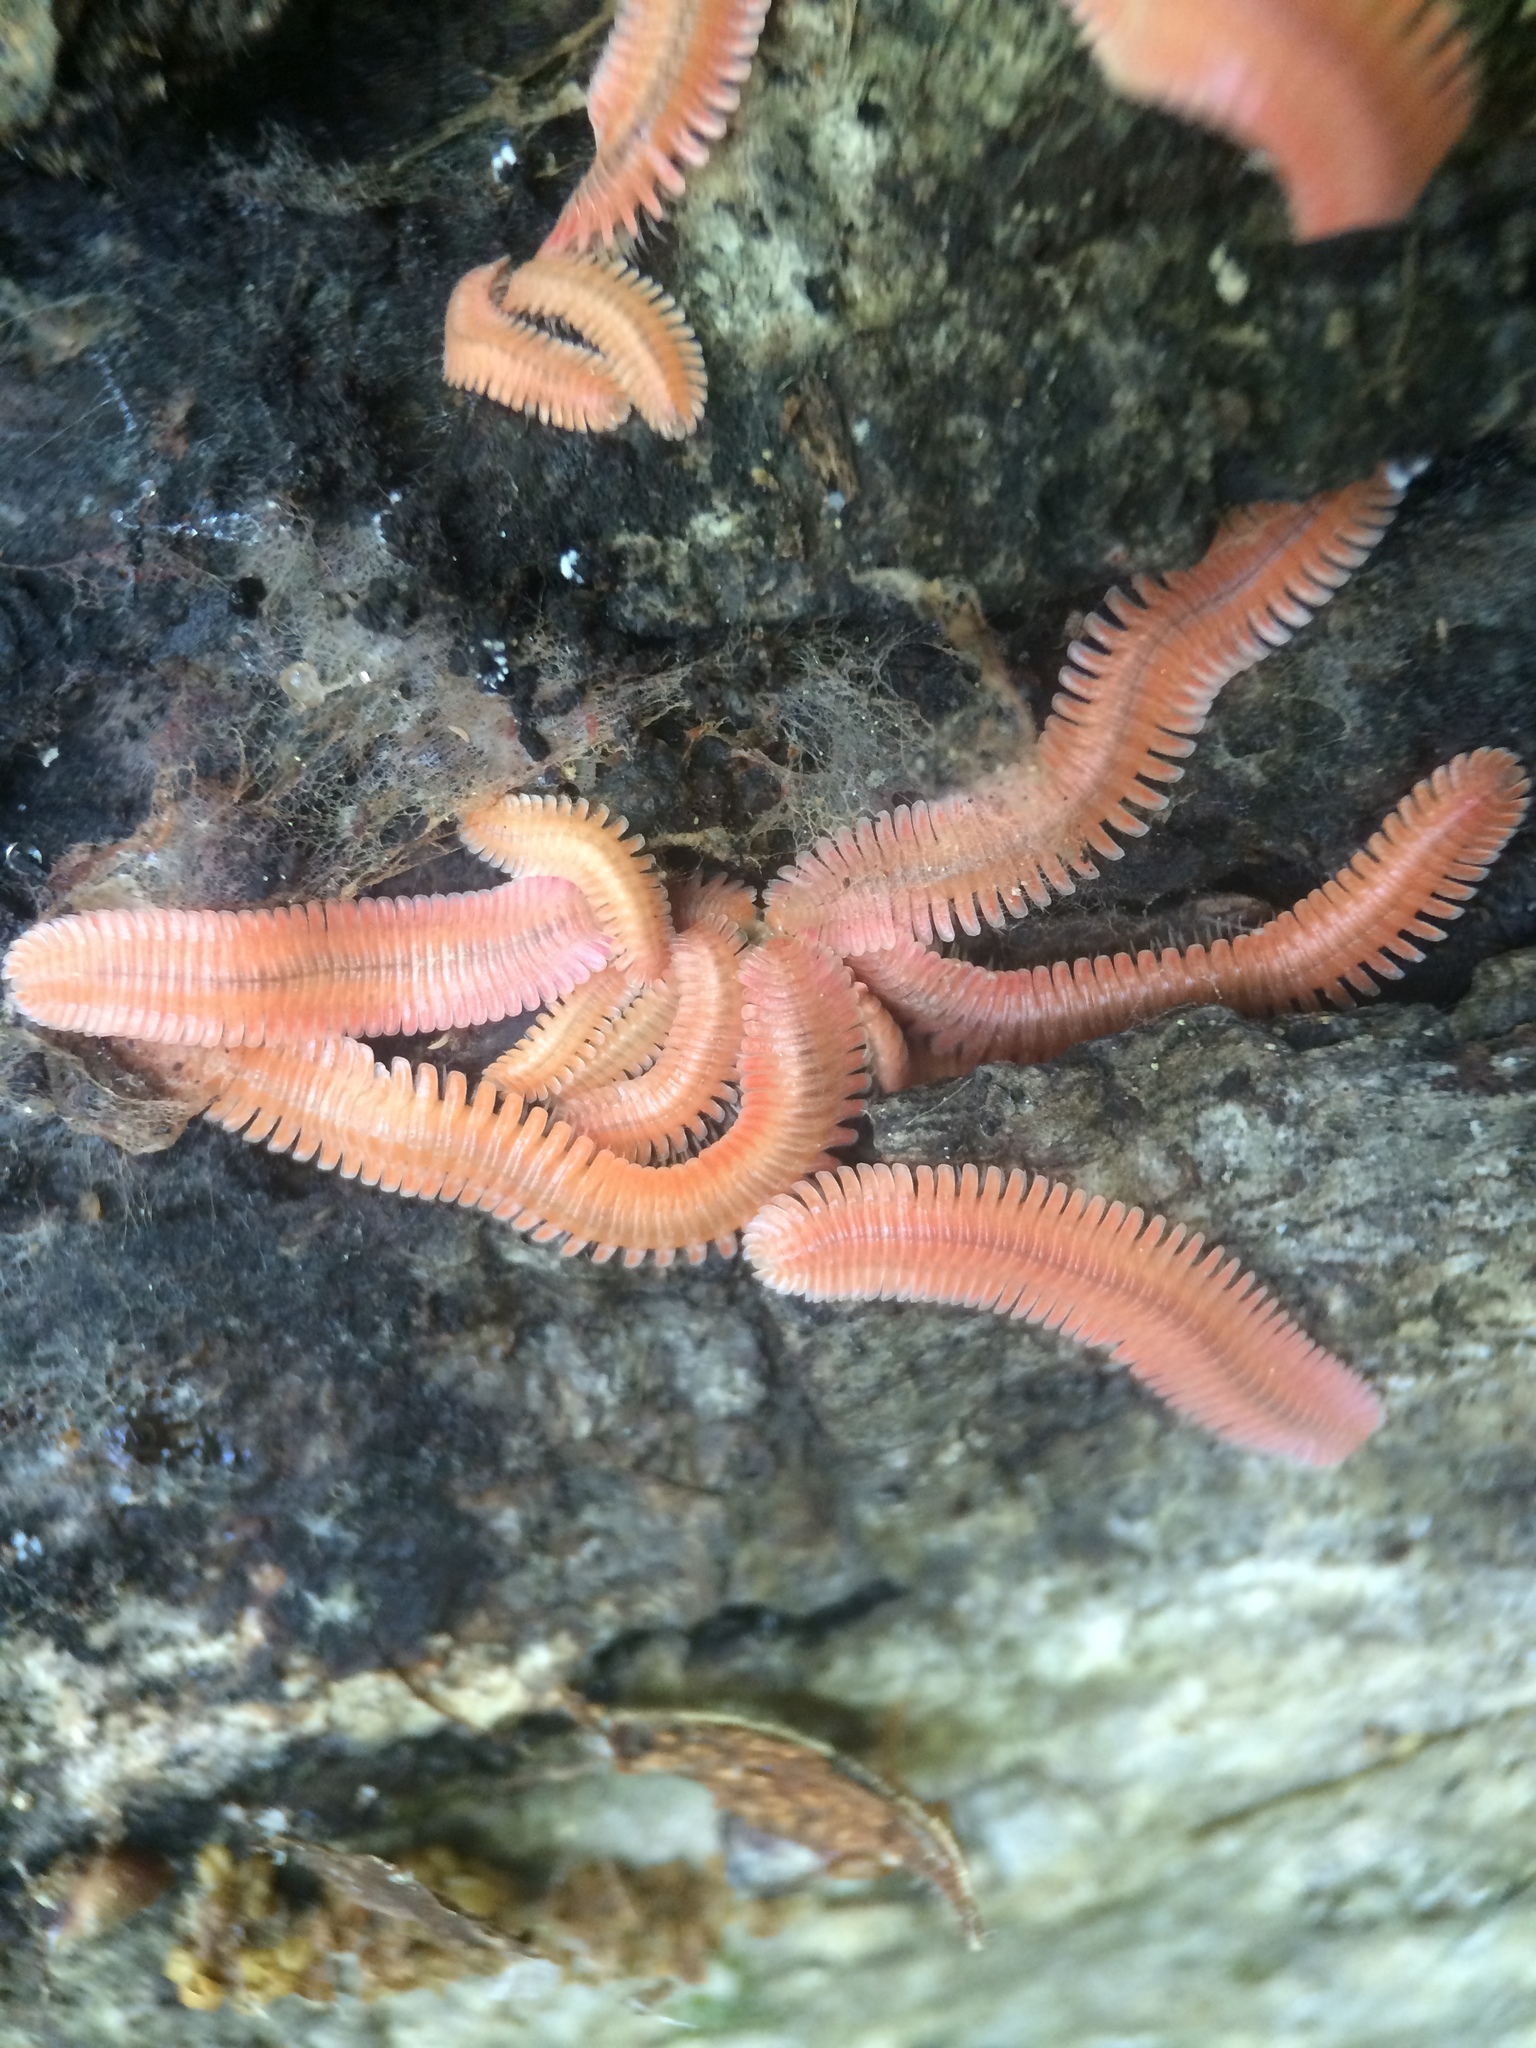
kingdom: Animalia
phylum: Arthropoda
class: Diplopoda
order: Platydesmida
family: Andrognathidae
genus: Brachycybe
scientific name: Brachycybe lecontii
